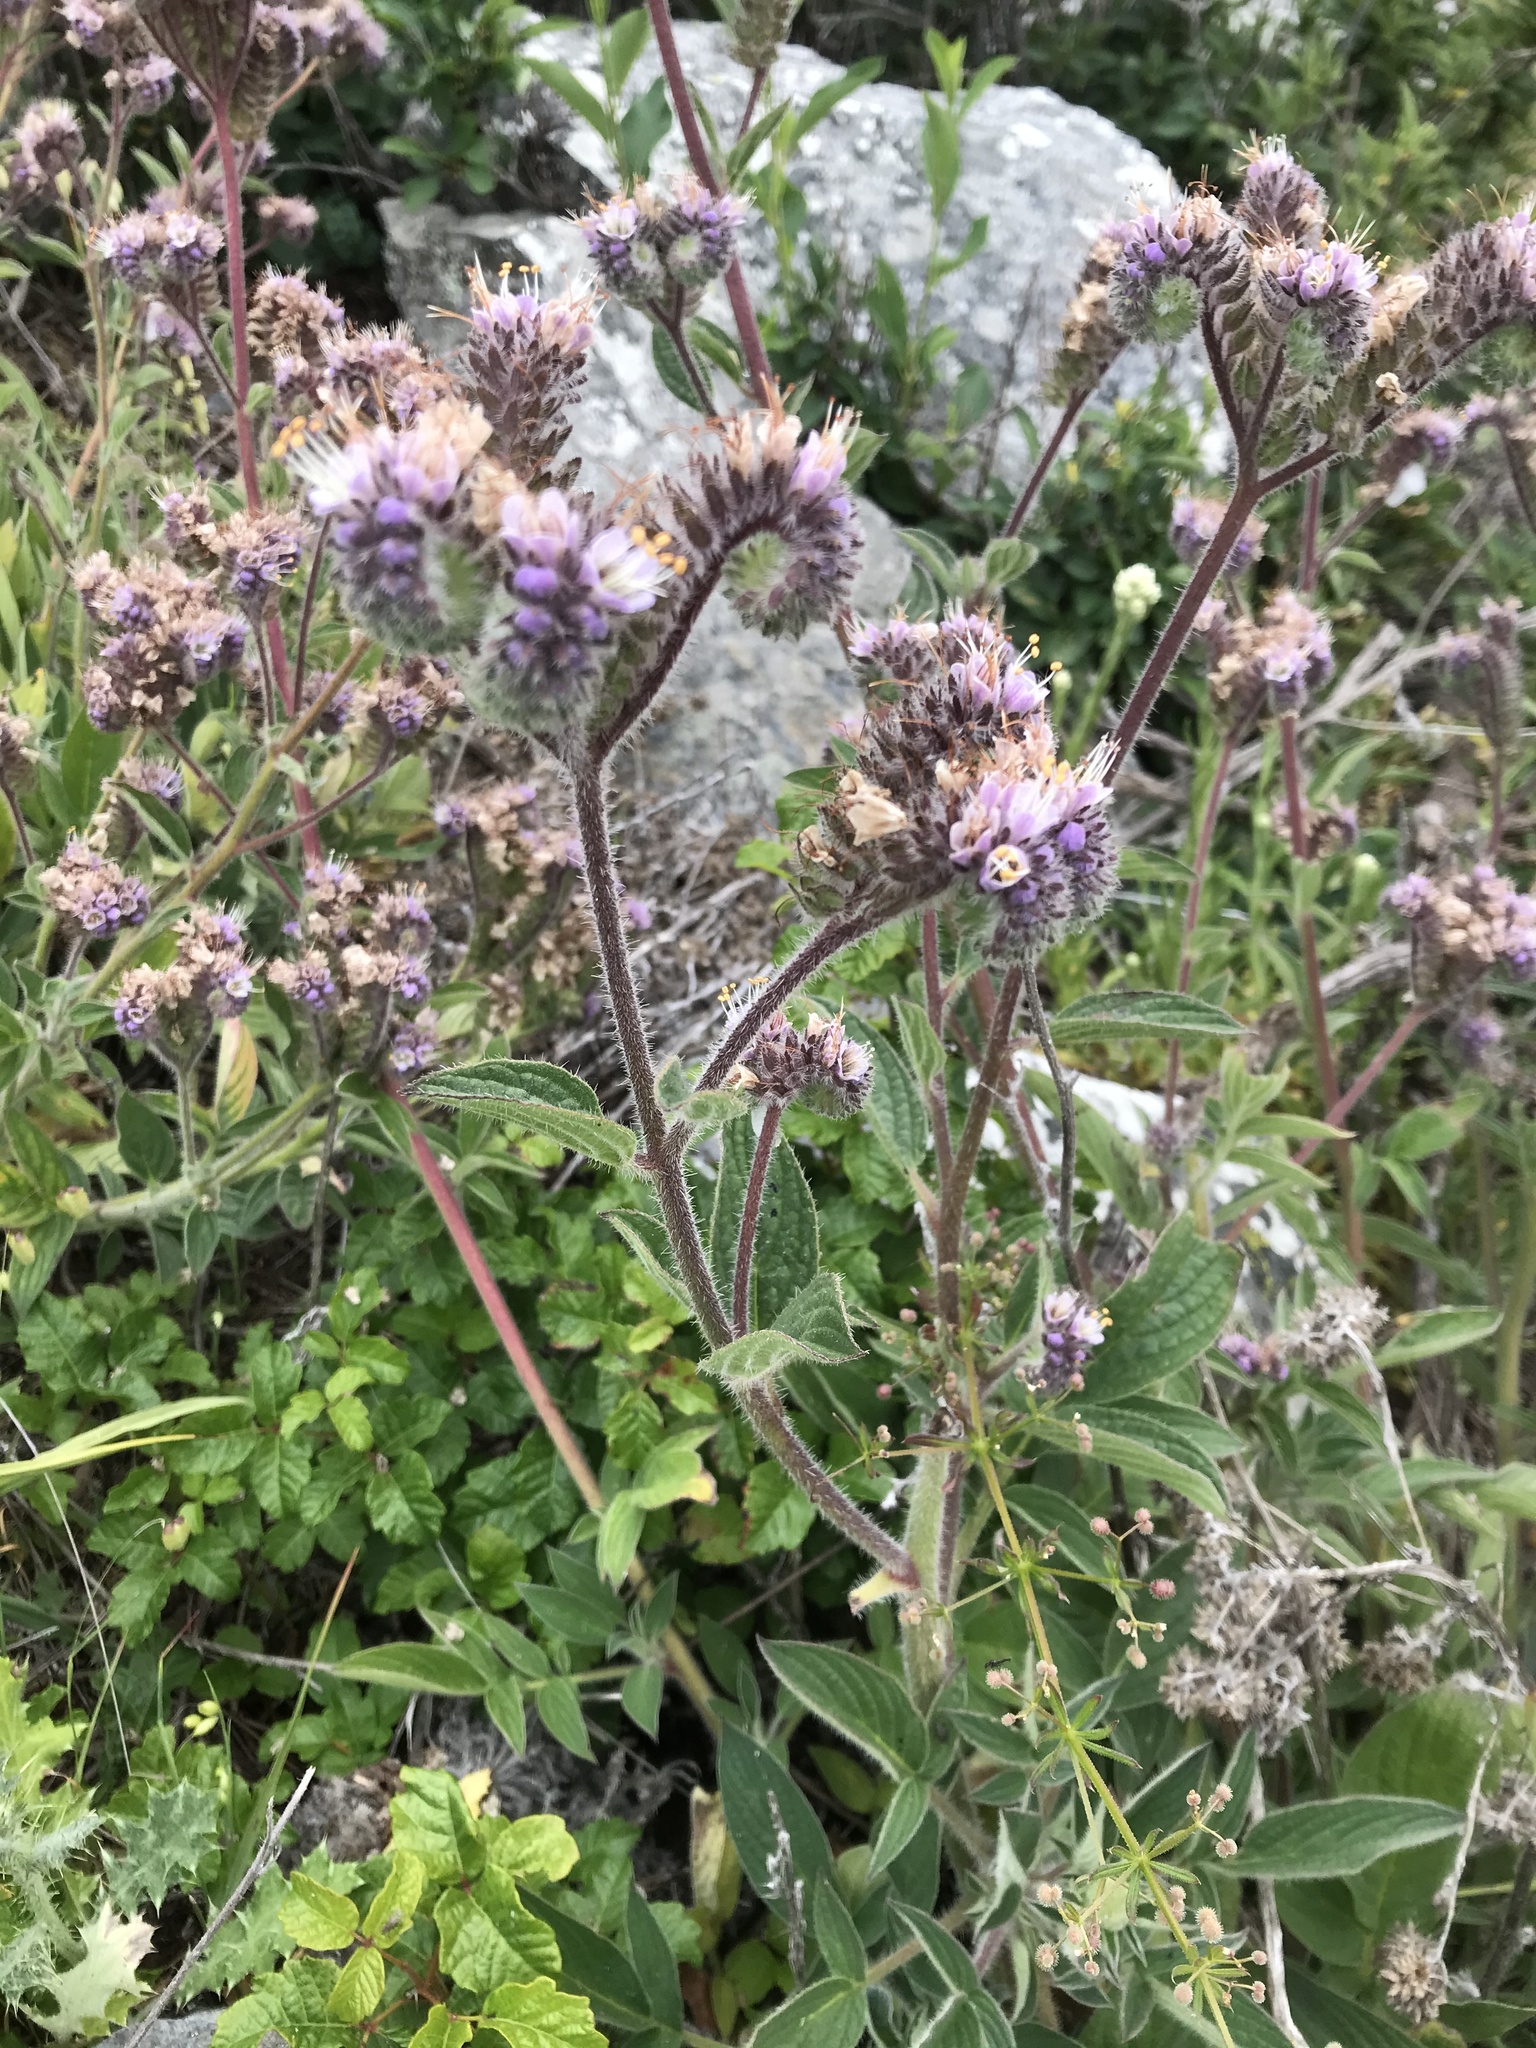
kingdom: Plantae
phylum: Tracheophyta
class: Magnoliopsida
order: Boraginales
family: Hydrophyllaceae
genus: Phacelia
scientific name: Phacelia californica
